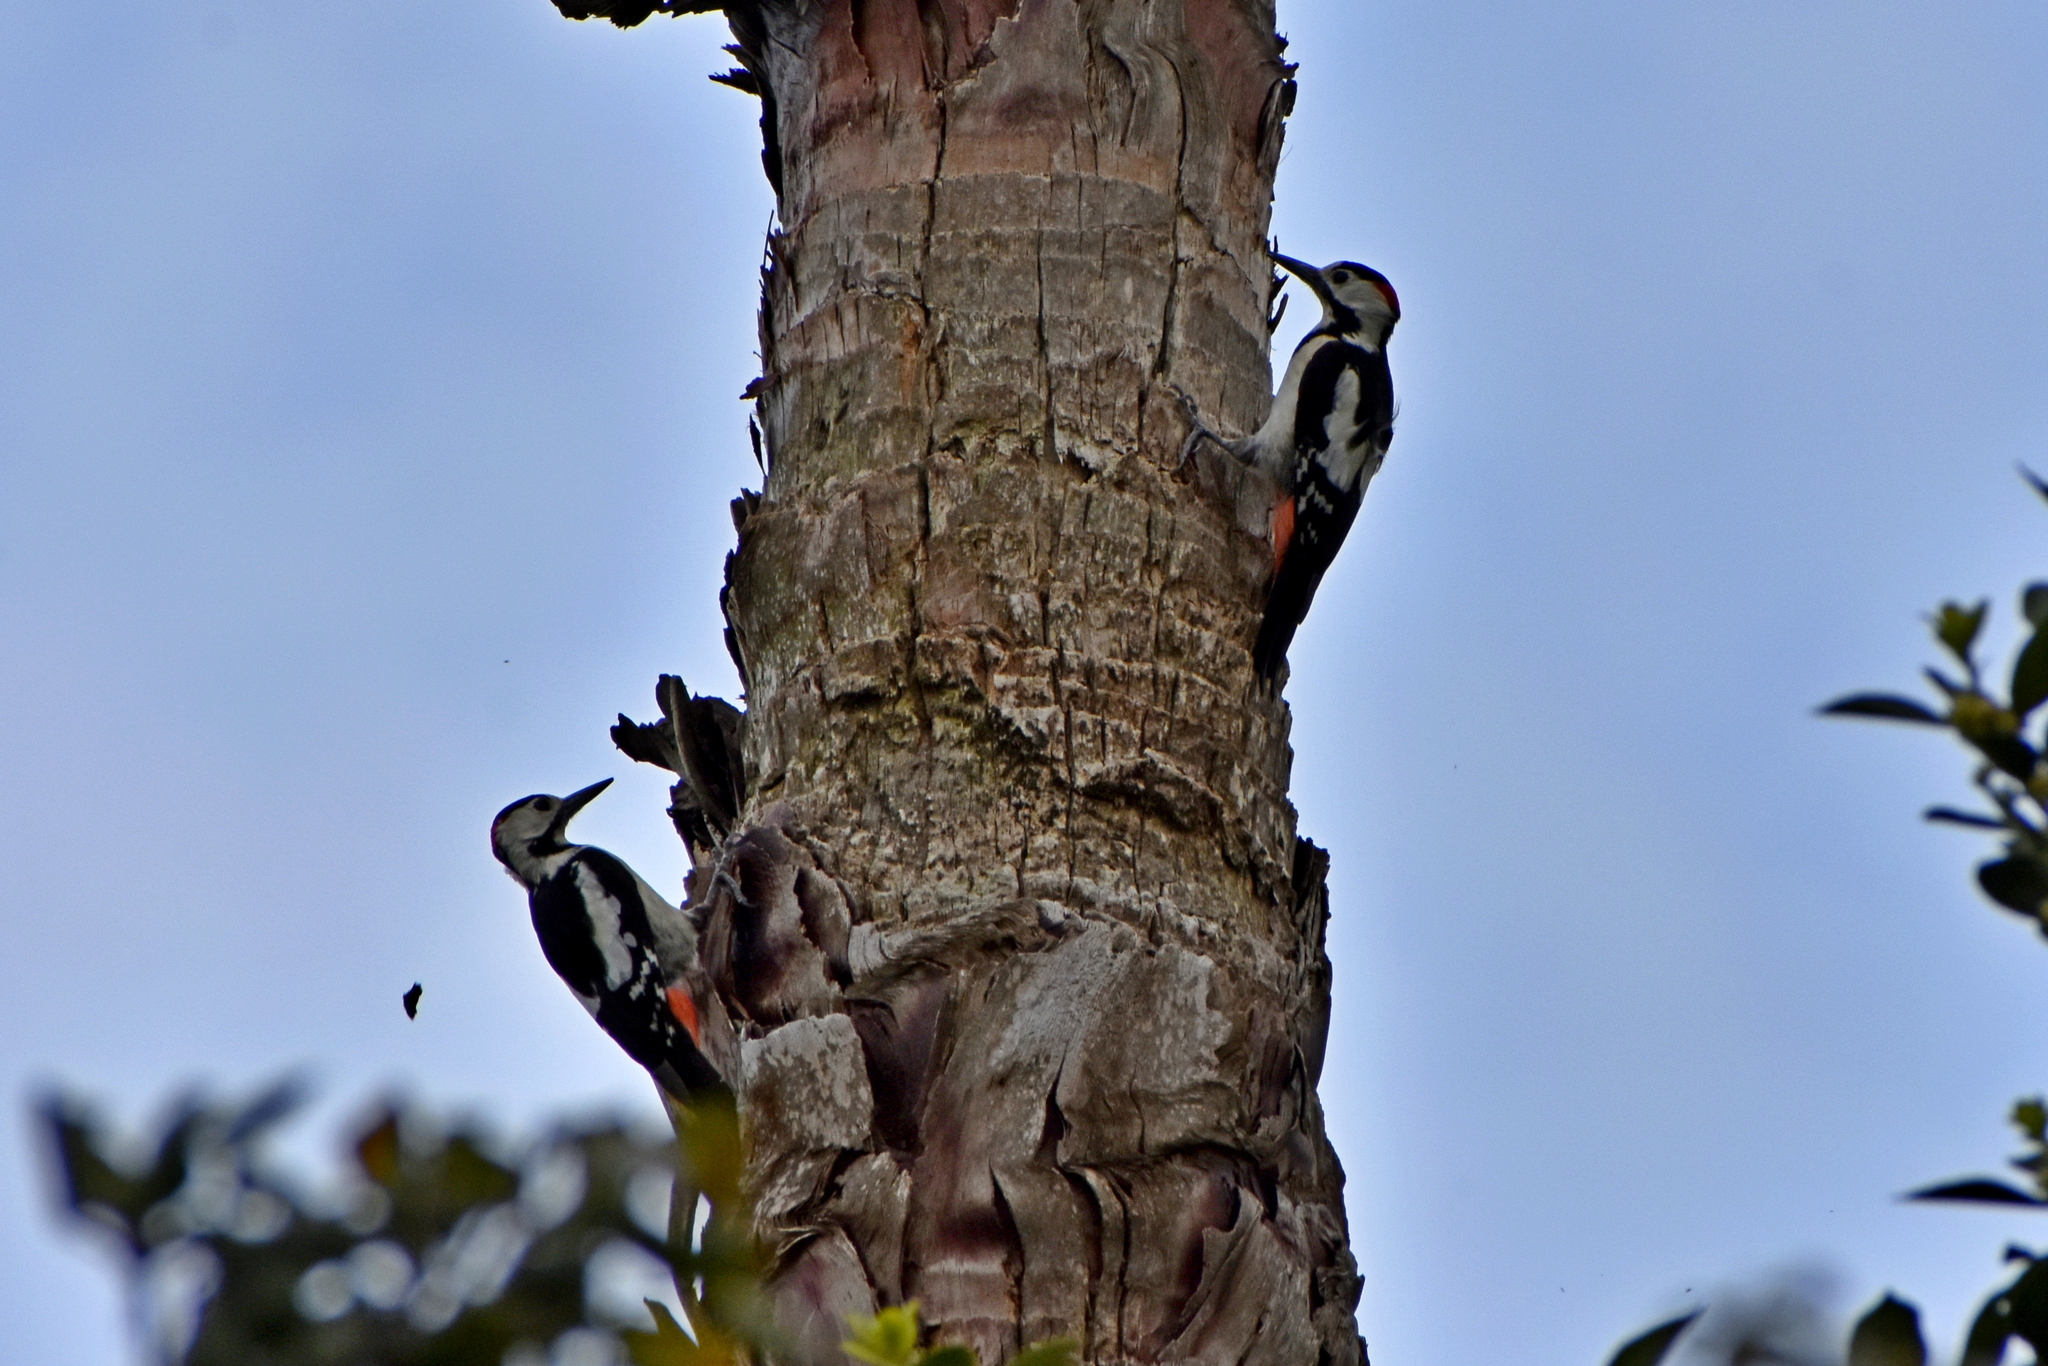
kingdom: Animalia
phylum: Chordata
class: Aves
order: Piciformes
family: Picidae
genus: Dendrocopos
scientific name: Dendrocopos syriacus
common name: Syrian woodpecker
